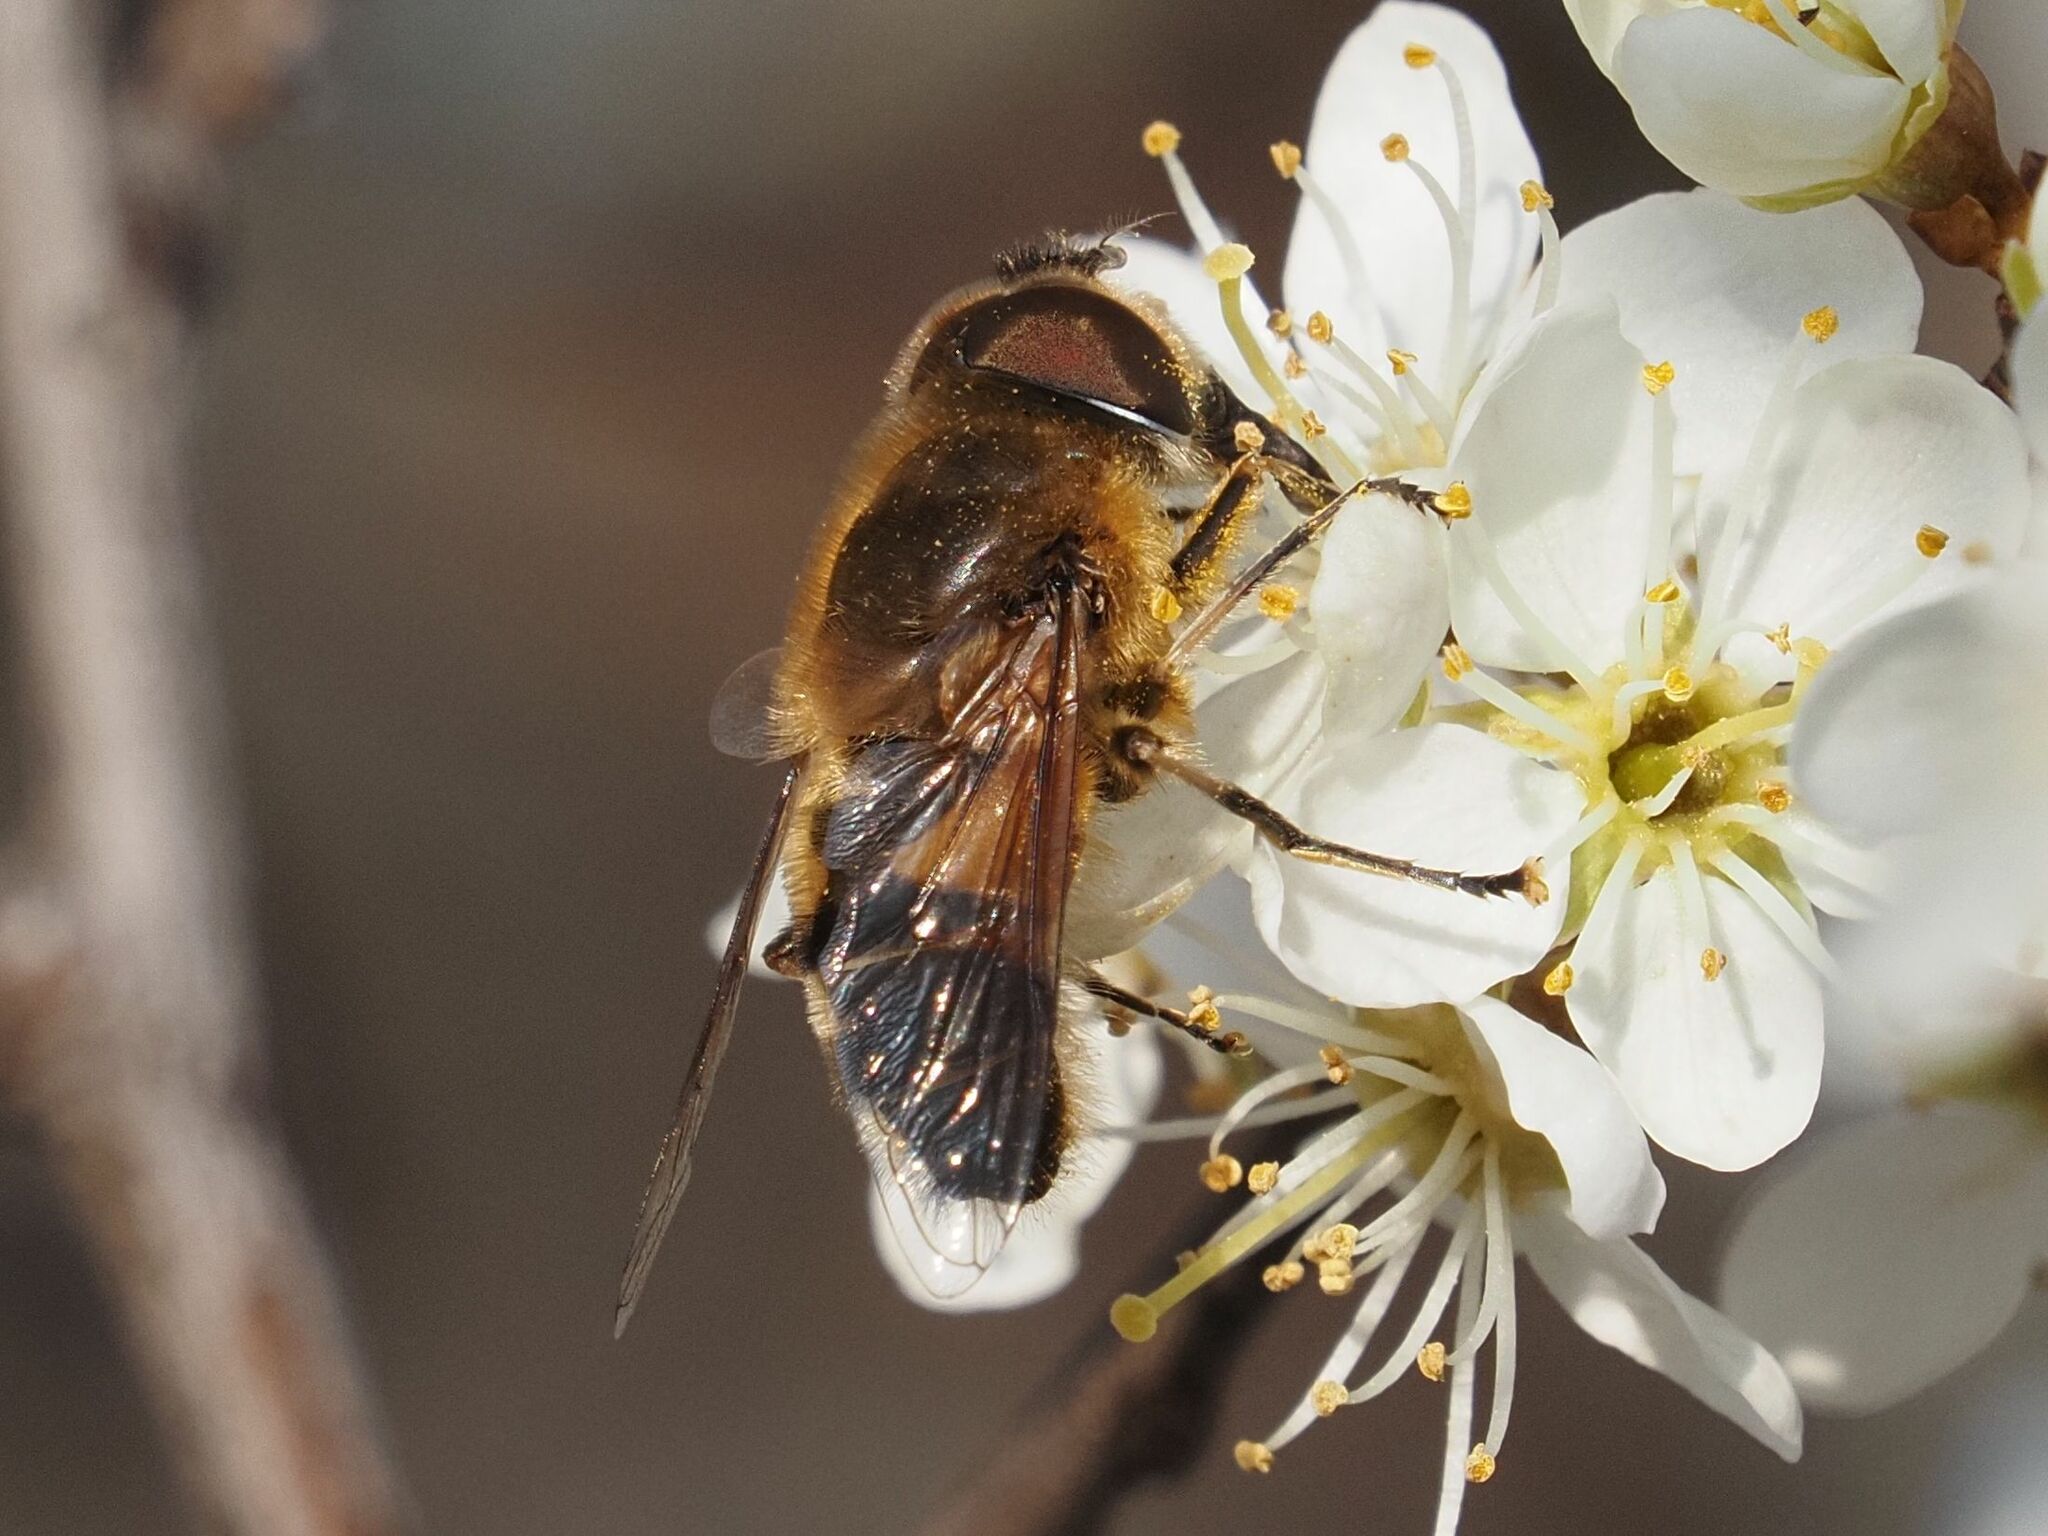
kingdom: Animalia
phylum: Arthropoda
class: Insecta
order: Diptera
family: Syrphidae
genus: Eristalis
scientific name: Eristalis pertinax
